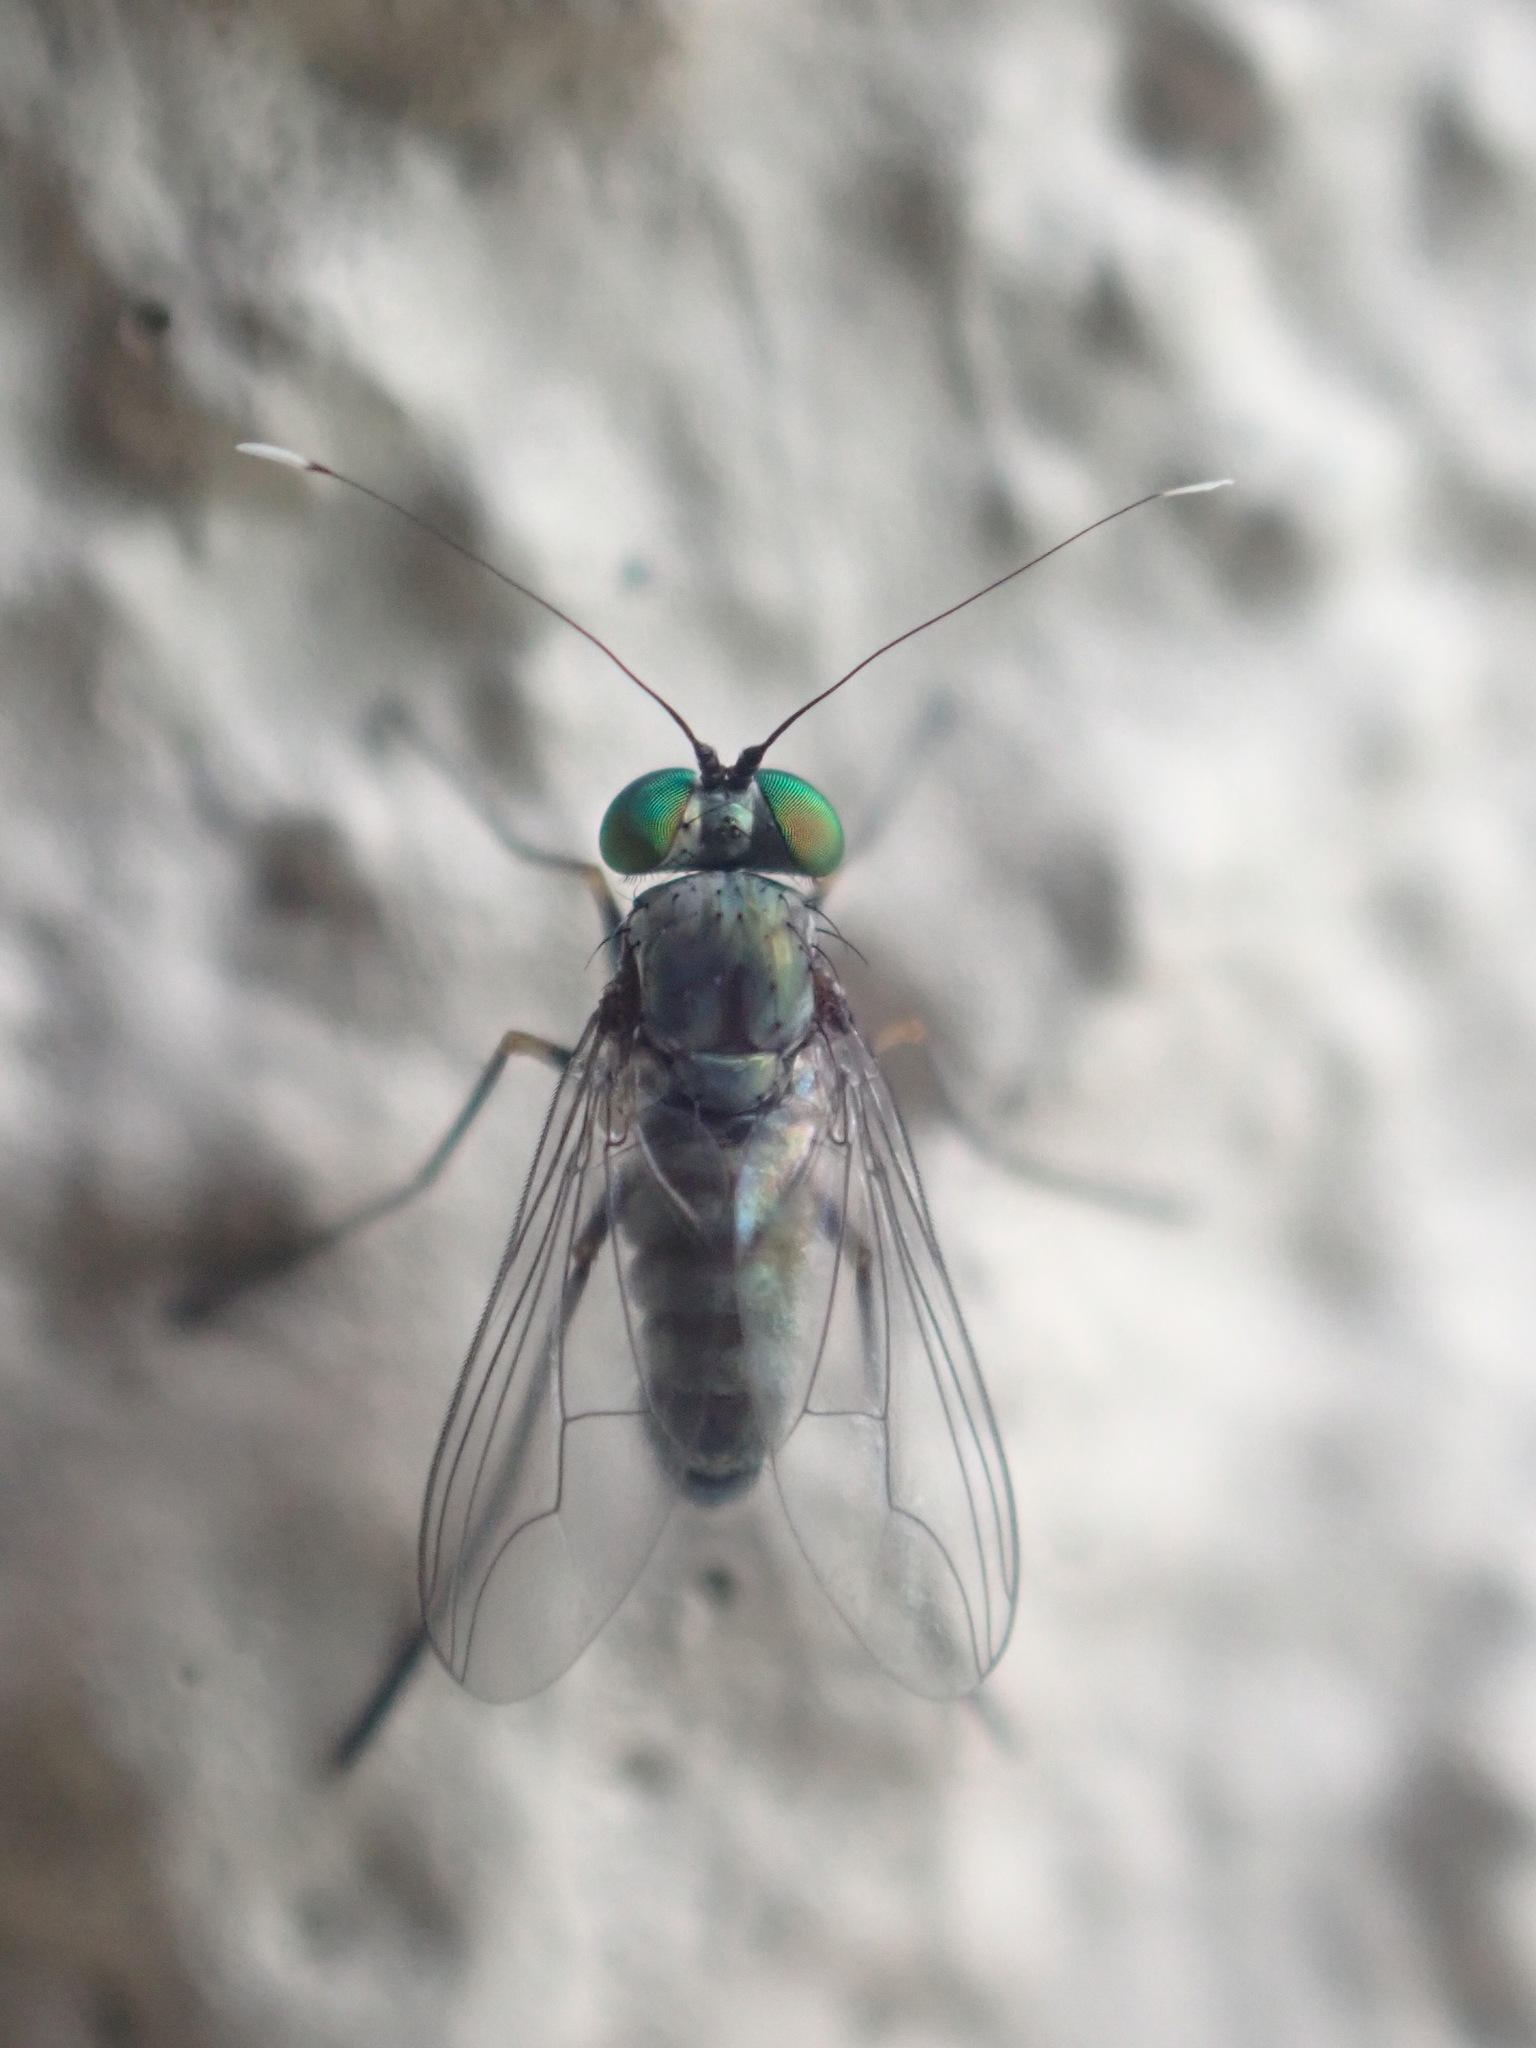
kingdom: Animalia
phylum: Arthropoda
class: Insecta
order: Diptera
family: Dolichopodidae
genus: Parentia
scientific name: Parentia restricta
